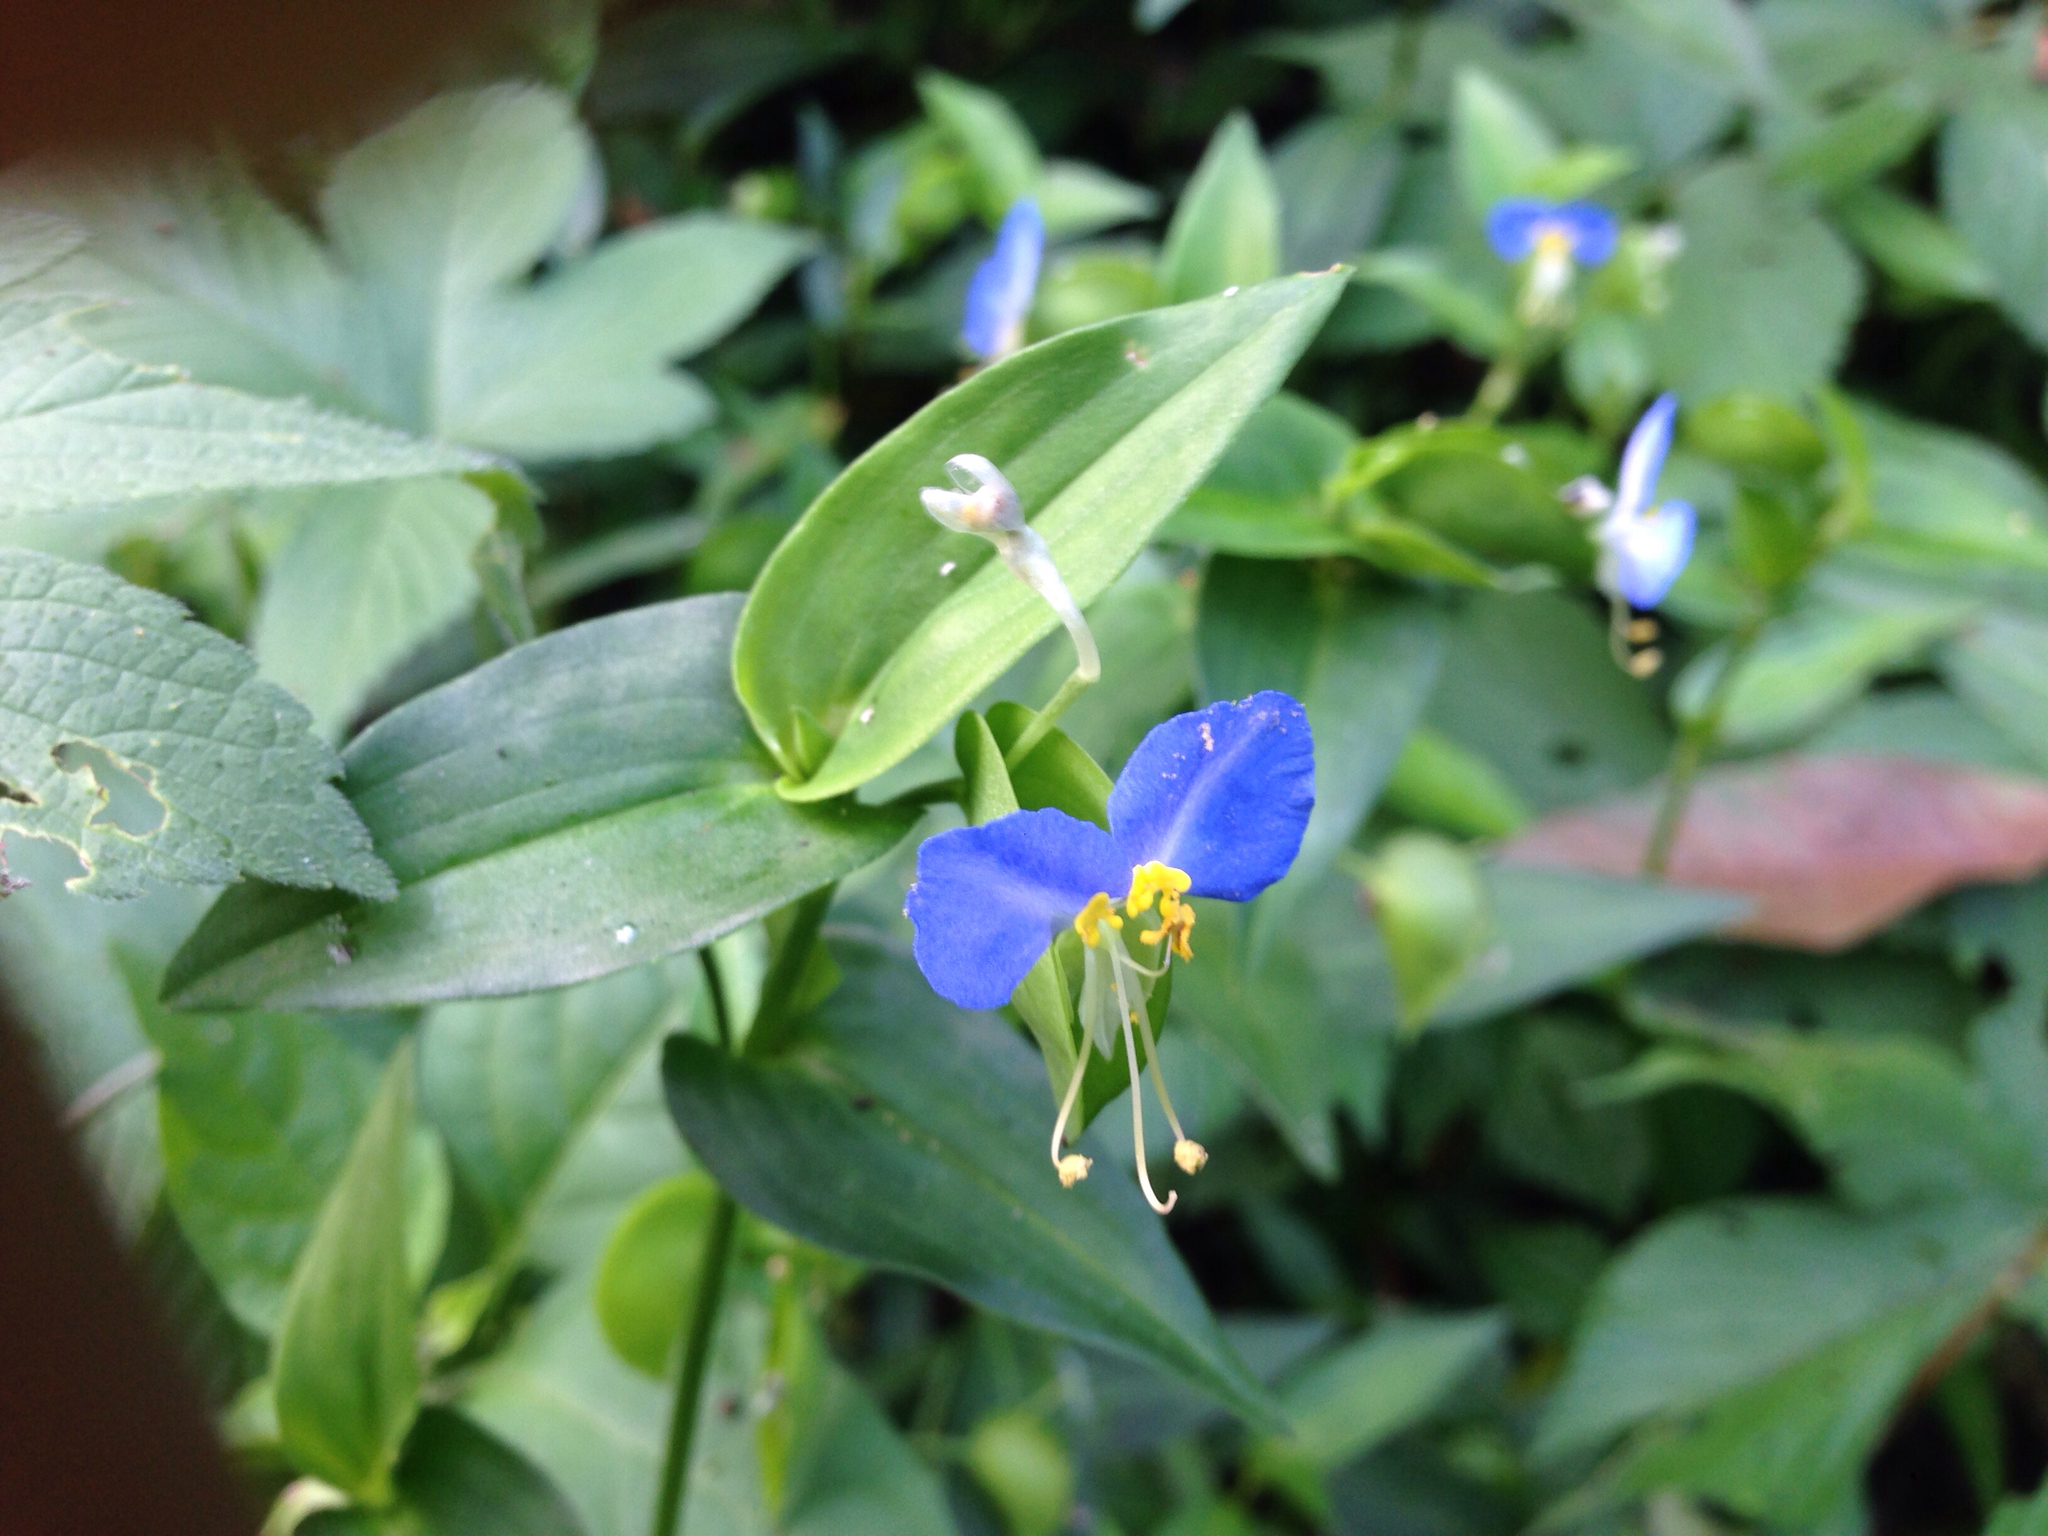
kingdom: Plantae
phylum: Tracheophyta
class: Liliopsida
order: Commelinales
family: Commelinaceae
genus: Commelina
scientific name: Commelina communis
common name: Asiatic dayflower
